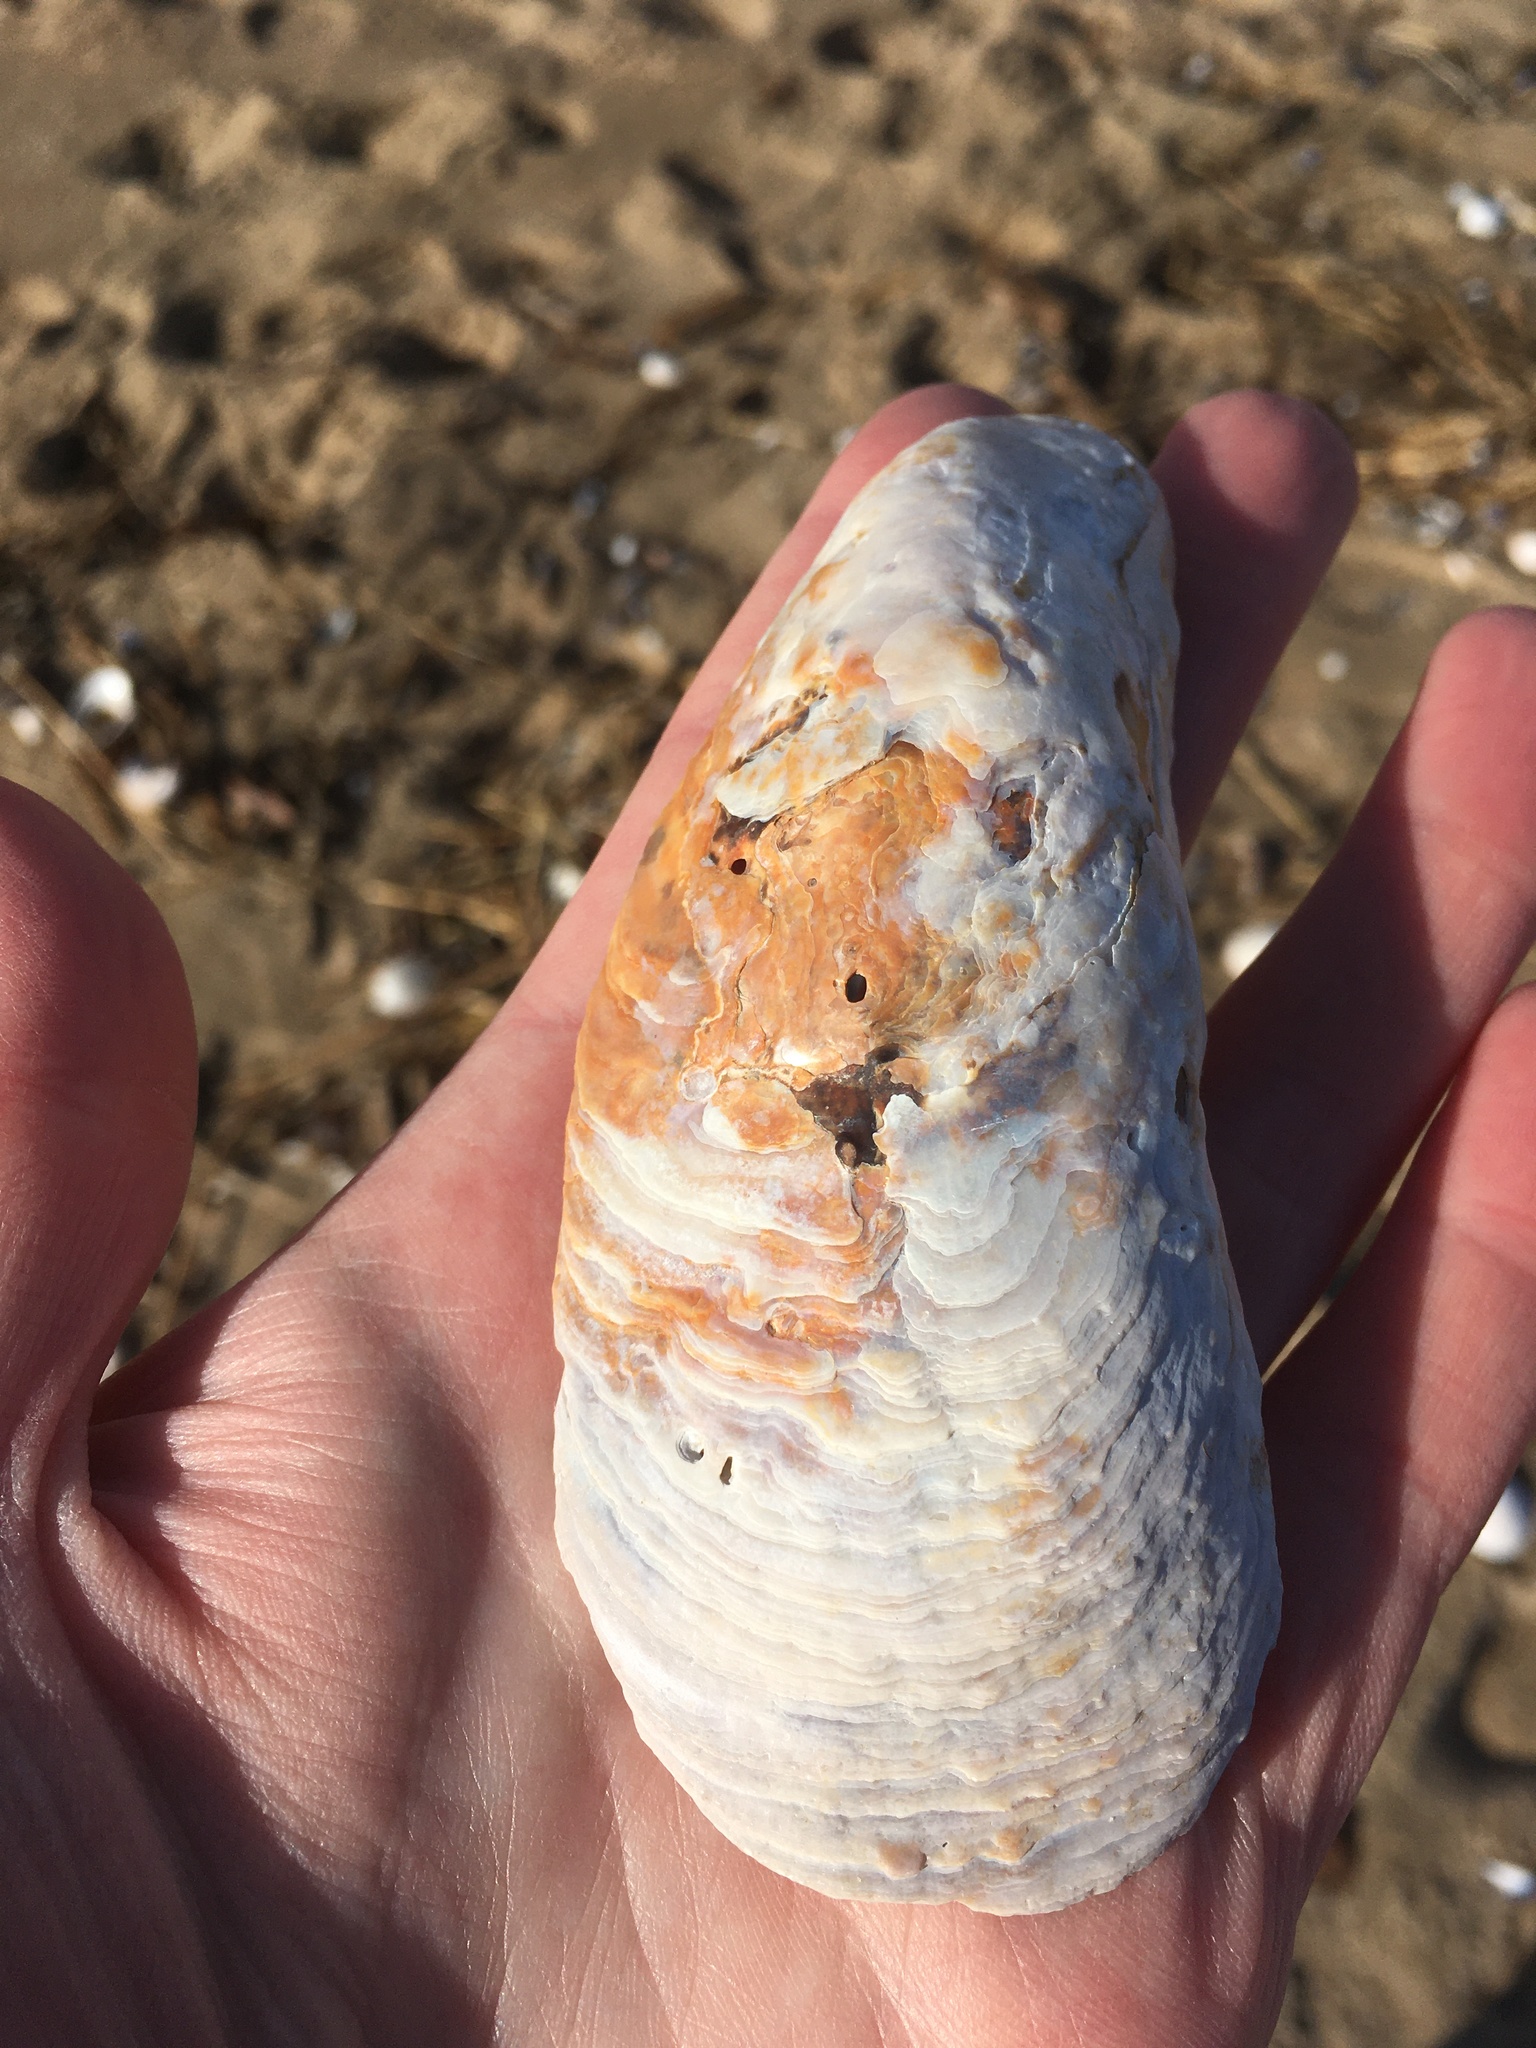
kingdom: Animalia
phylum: Mollusca
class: Bivalvia
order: Mytilida
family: Mytilidae
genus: Modiolus
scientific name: Modiolus modiolus
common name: Horse-mussel
